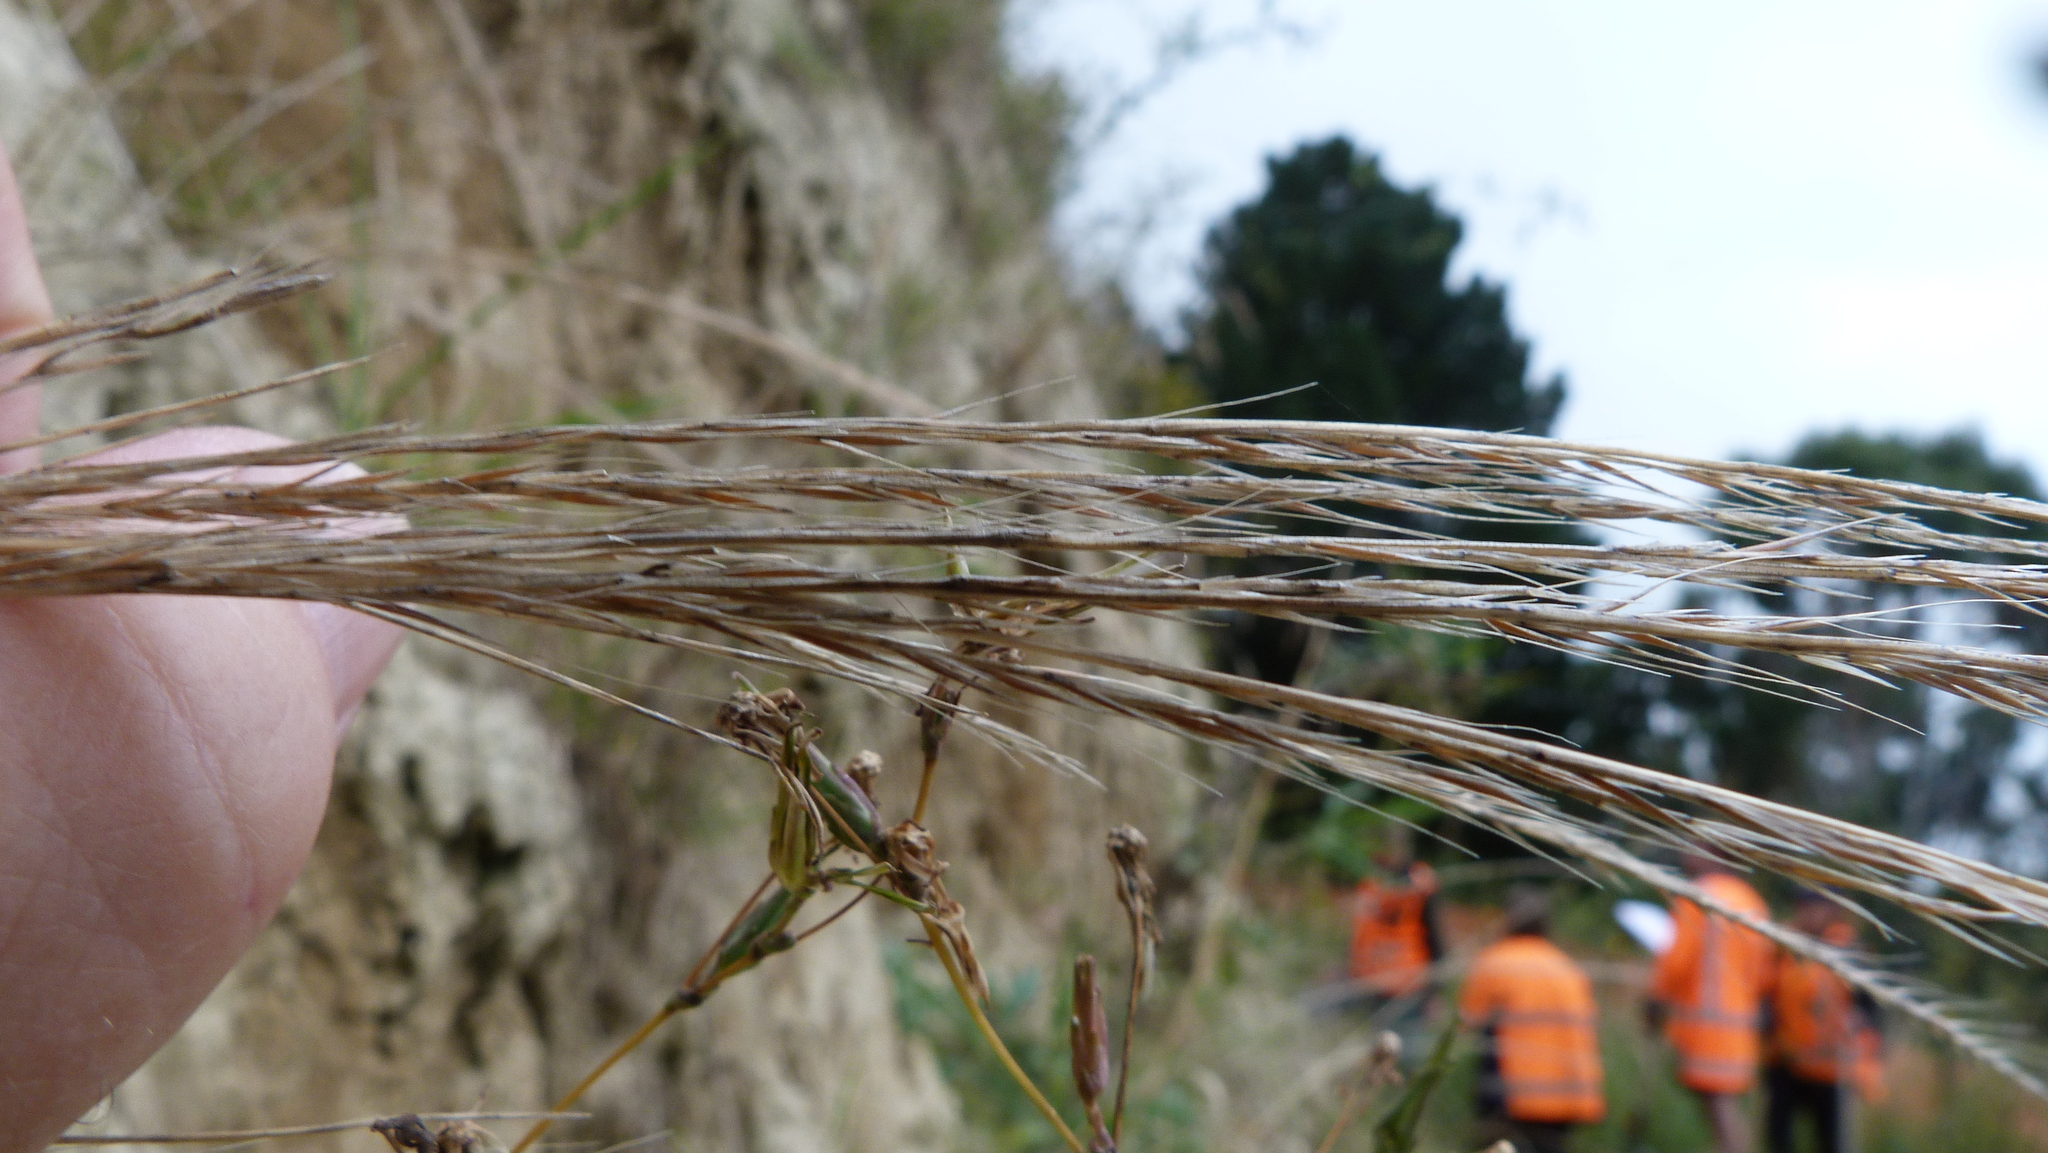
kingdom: Plantae
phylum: Tracheophyta
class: Liliopsida
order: Poales
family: Poaceae
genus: Festuca
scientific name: Festuca myuros
